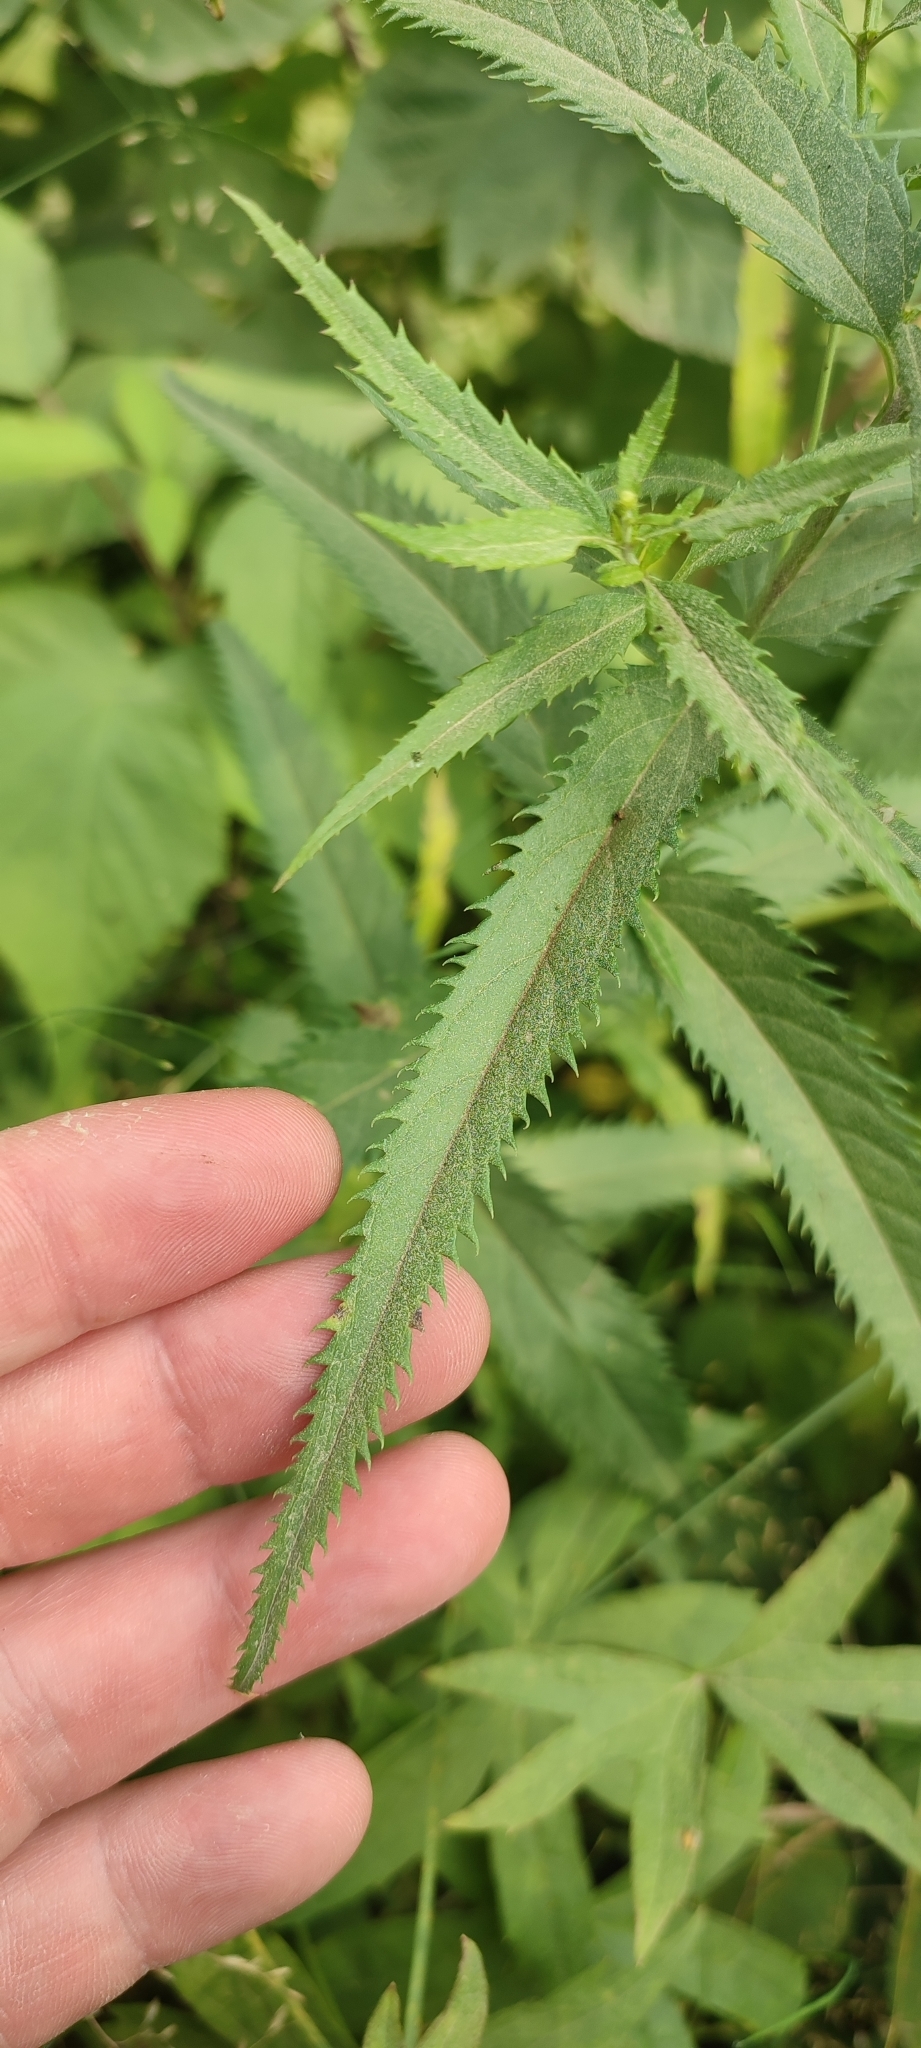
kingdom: Plantae
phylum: Tracheophyta
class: Magnoliopsida
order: Lamiales
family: Plantaginaceae
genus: Veronica
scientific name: Veronica longifolia
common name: Garden speedwell
